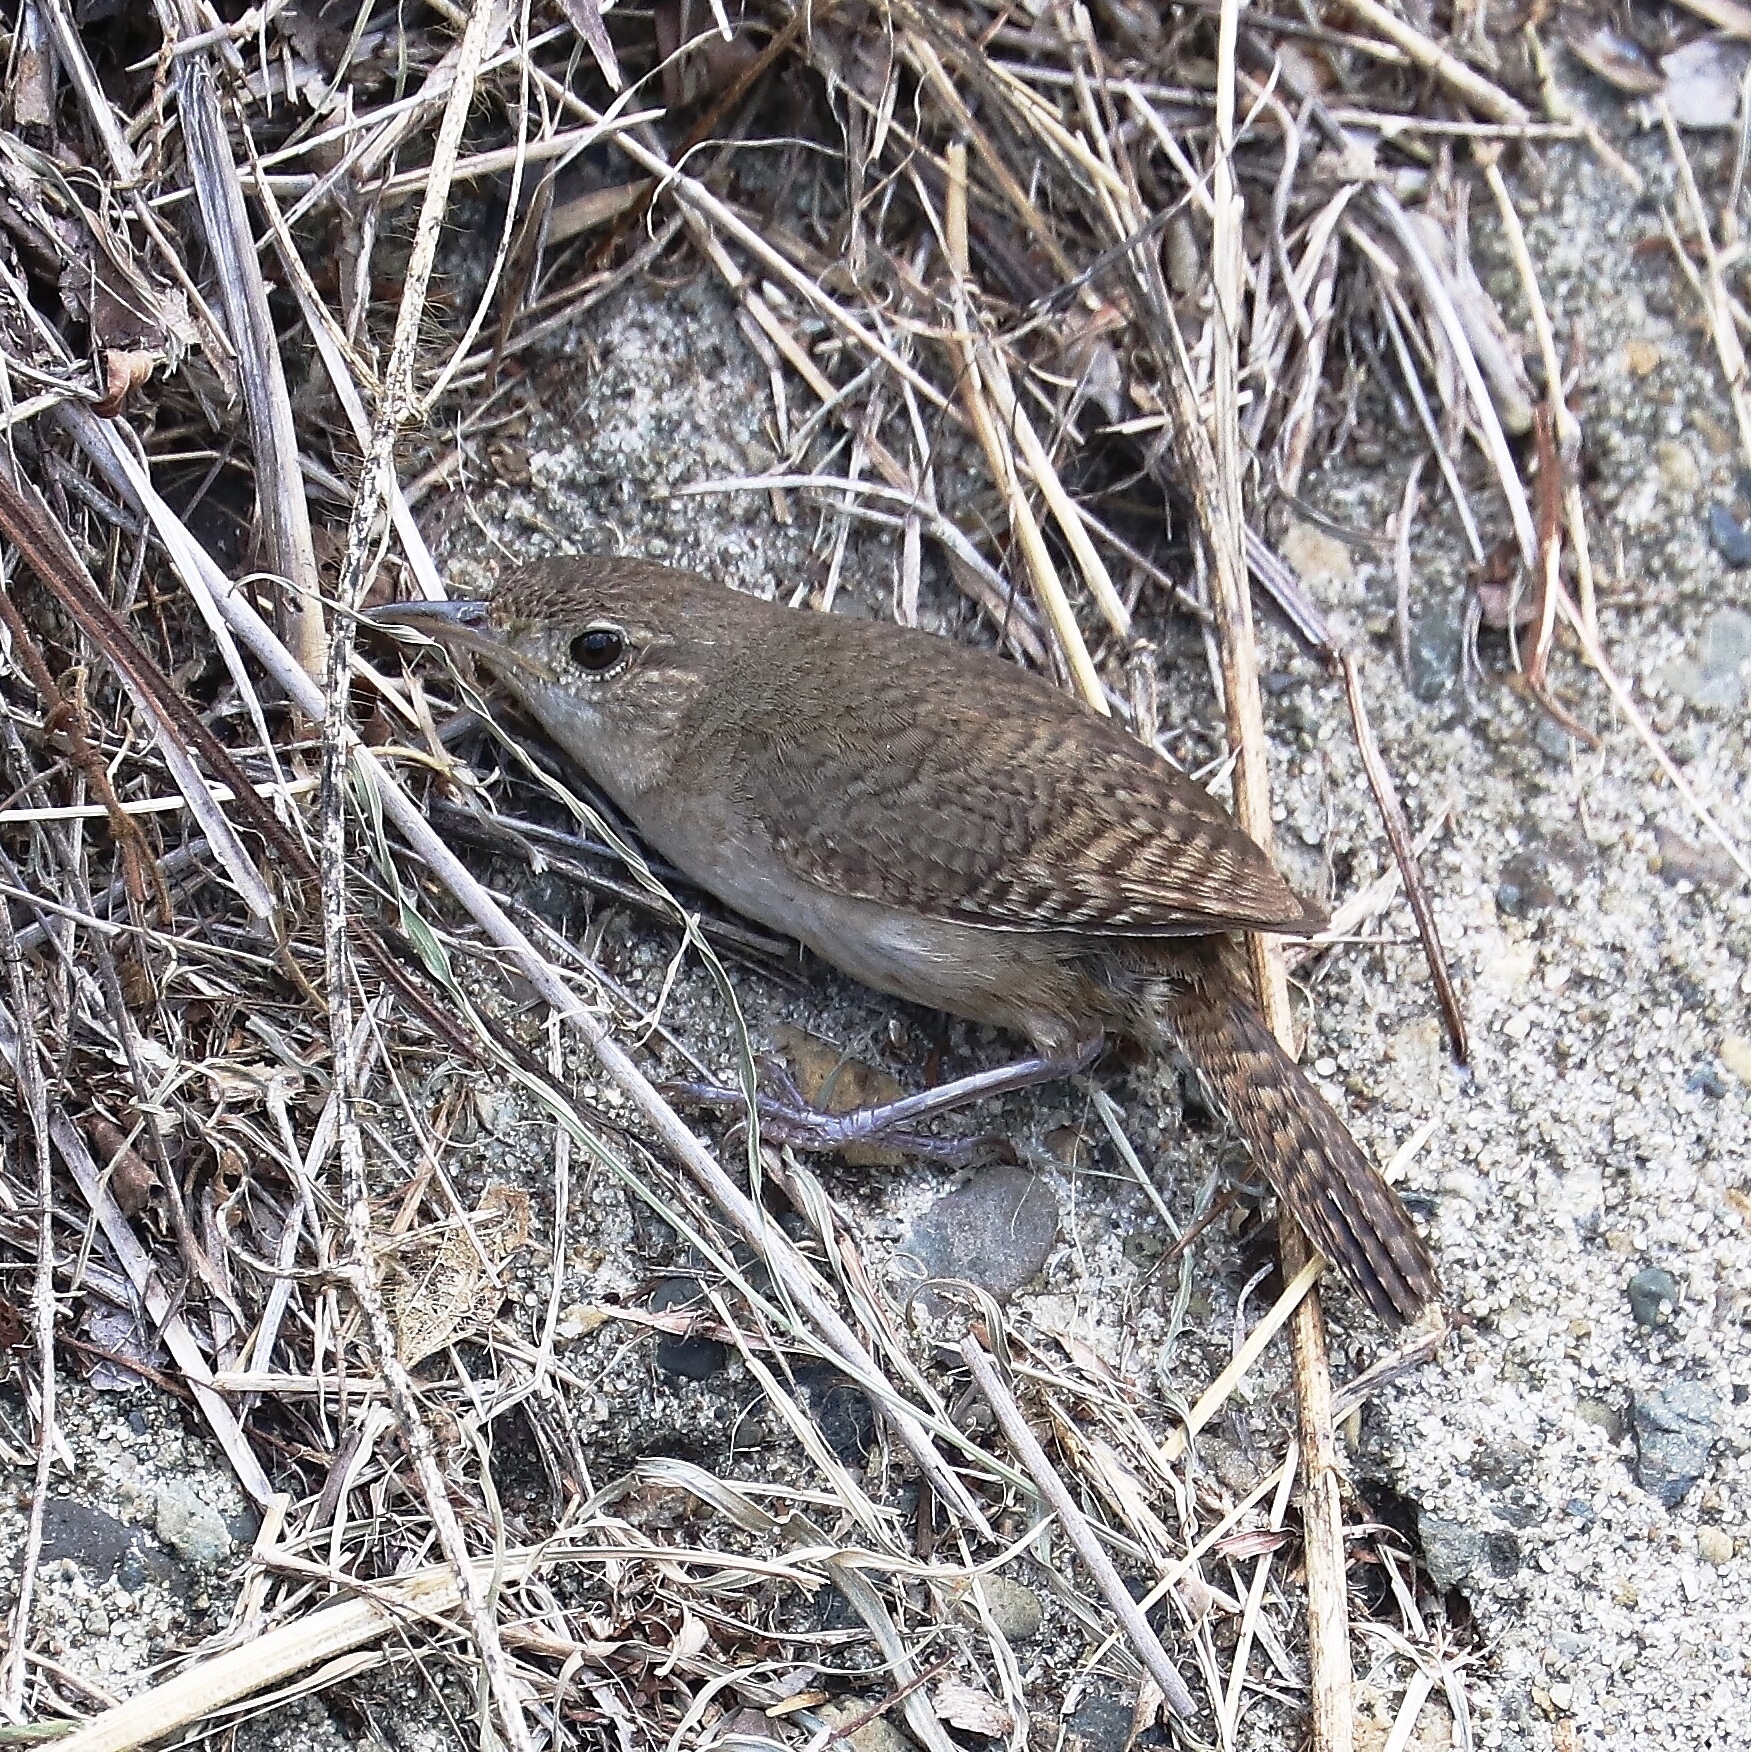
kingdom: Animalia
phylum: Chordata
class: Aves
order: Passeriformes
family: Troglodytidae
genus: Troglodytes
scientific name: Troglodytes aedon
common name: House wren
